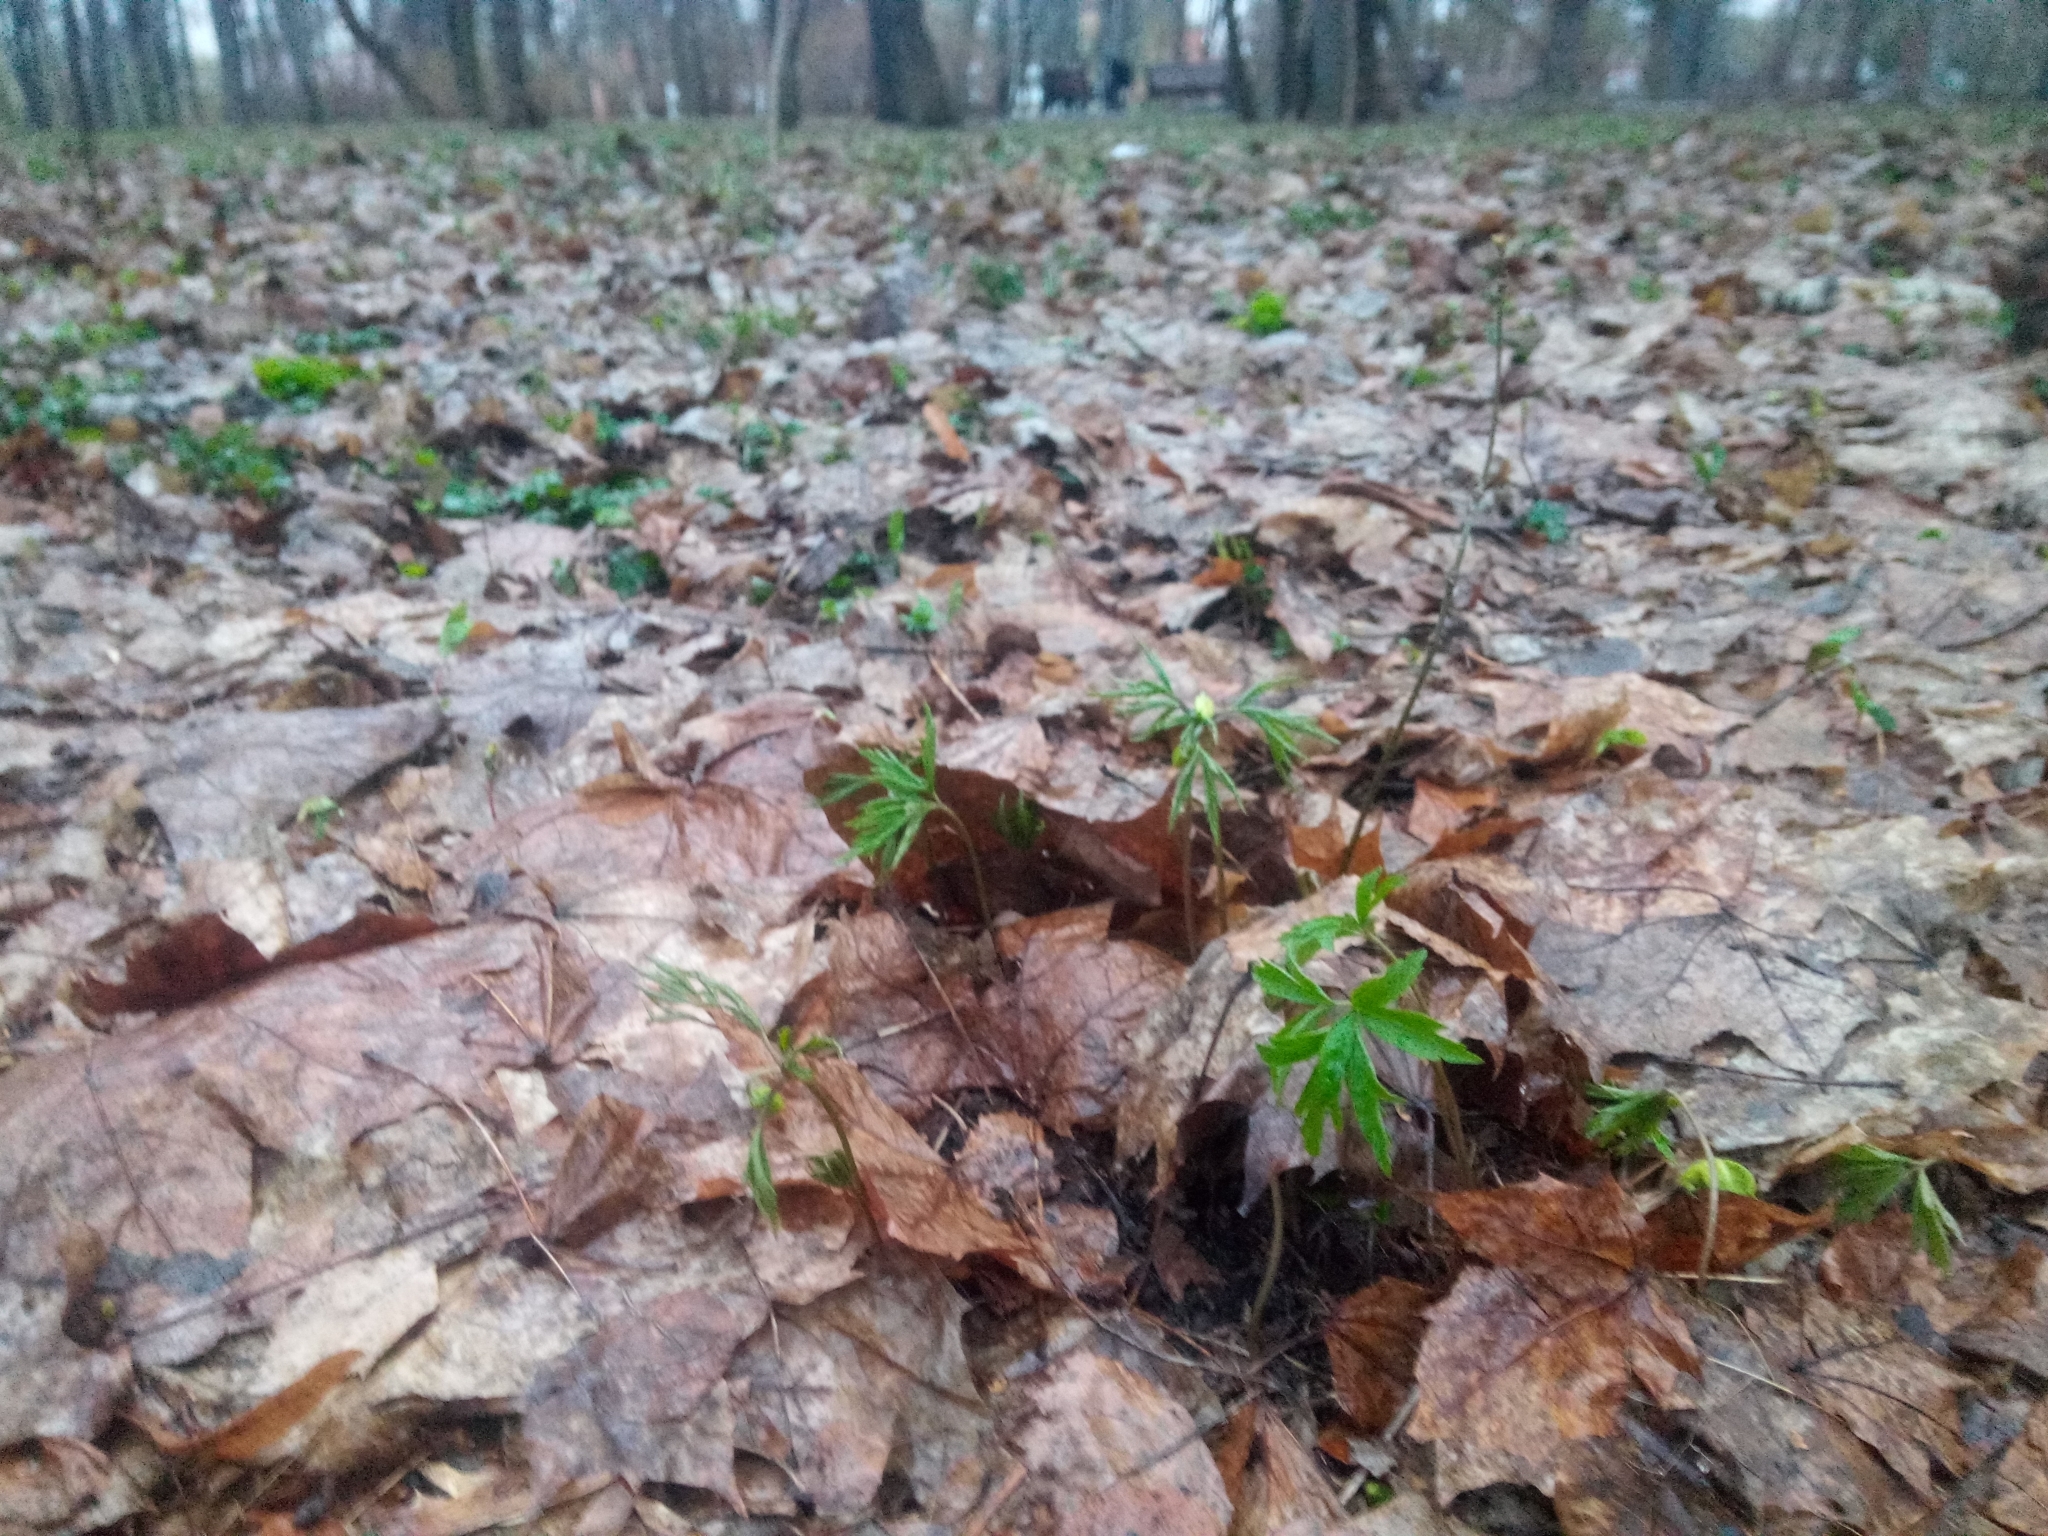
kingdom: Plantae
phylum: Tracheophyta
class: Magnoliopsida
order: Ranunculales
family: Ranunculaceae
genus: Anemone
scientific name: Anemone nemorosa
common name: Wood anemone
